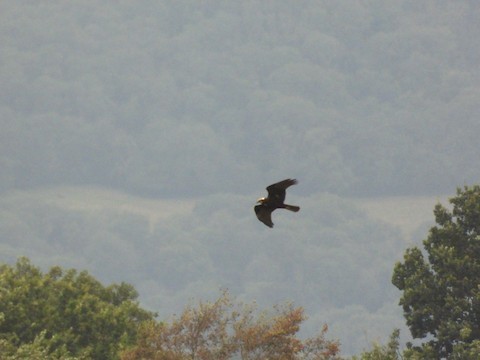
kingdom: Animalia
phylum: Chordata
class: Aves
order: Accipitriformes
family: Accipitridae
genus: Circus
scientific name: Circus aeruginosus
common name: Western marsh harrier
